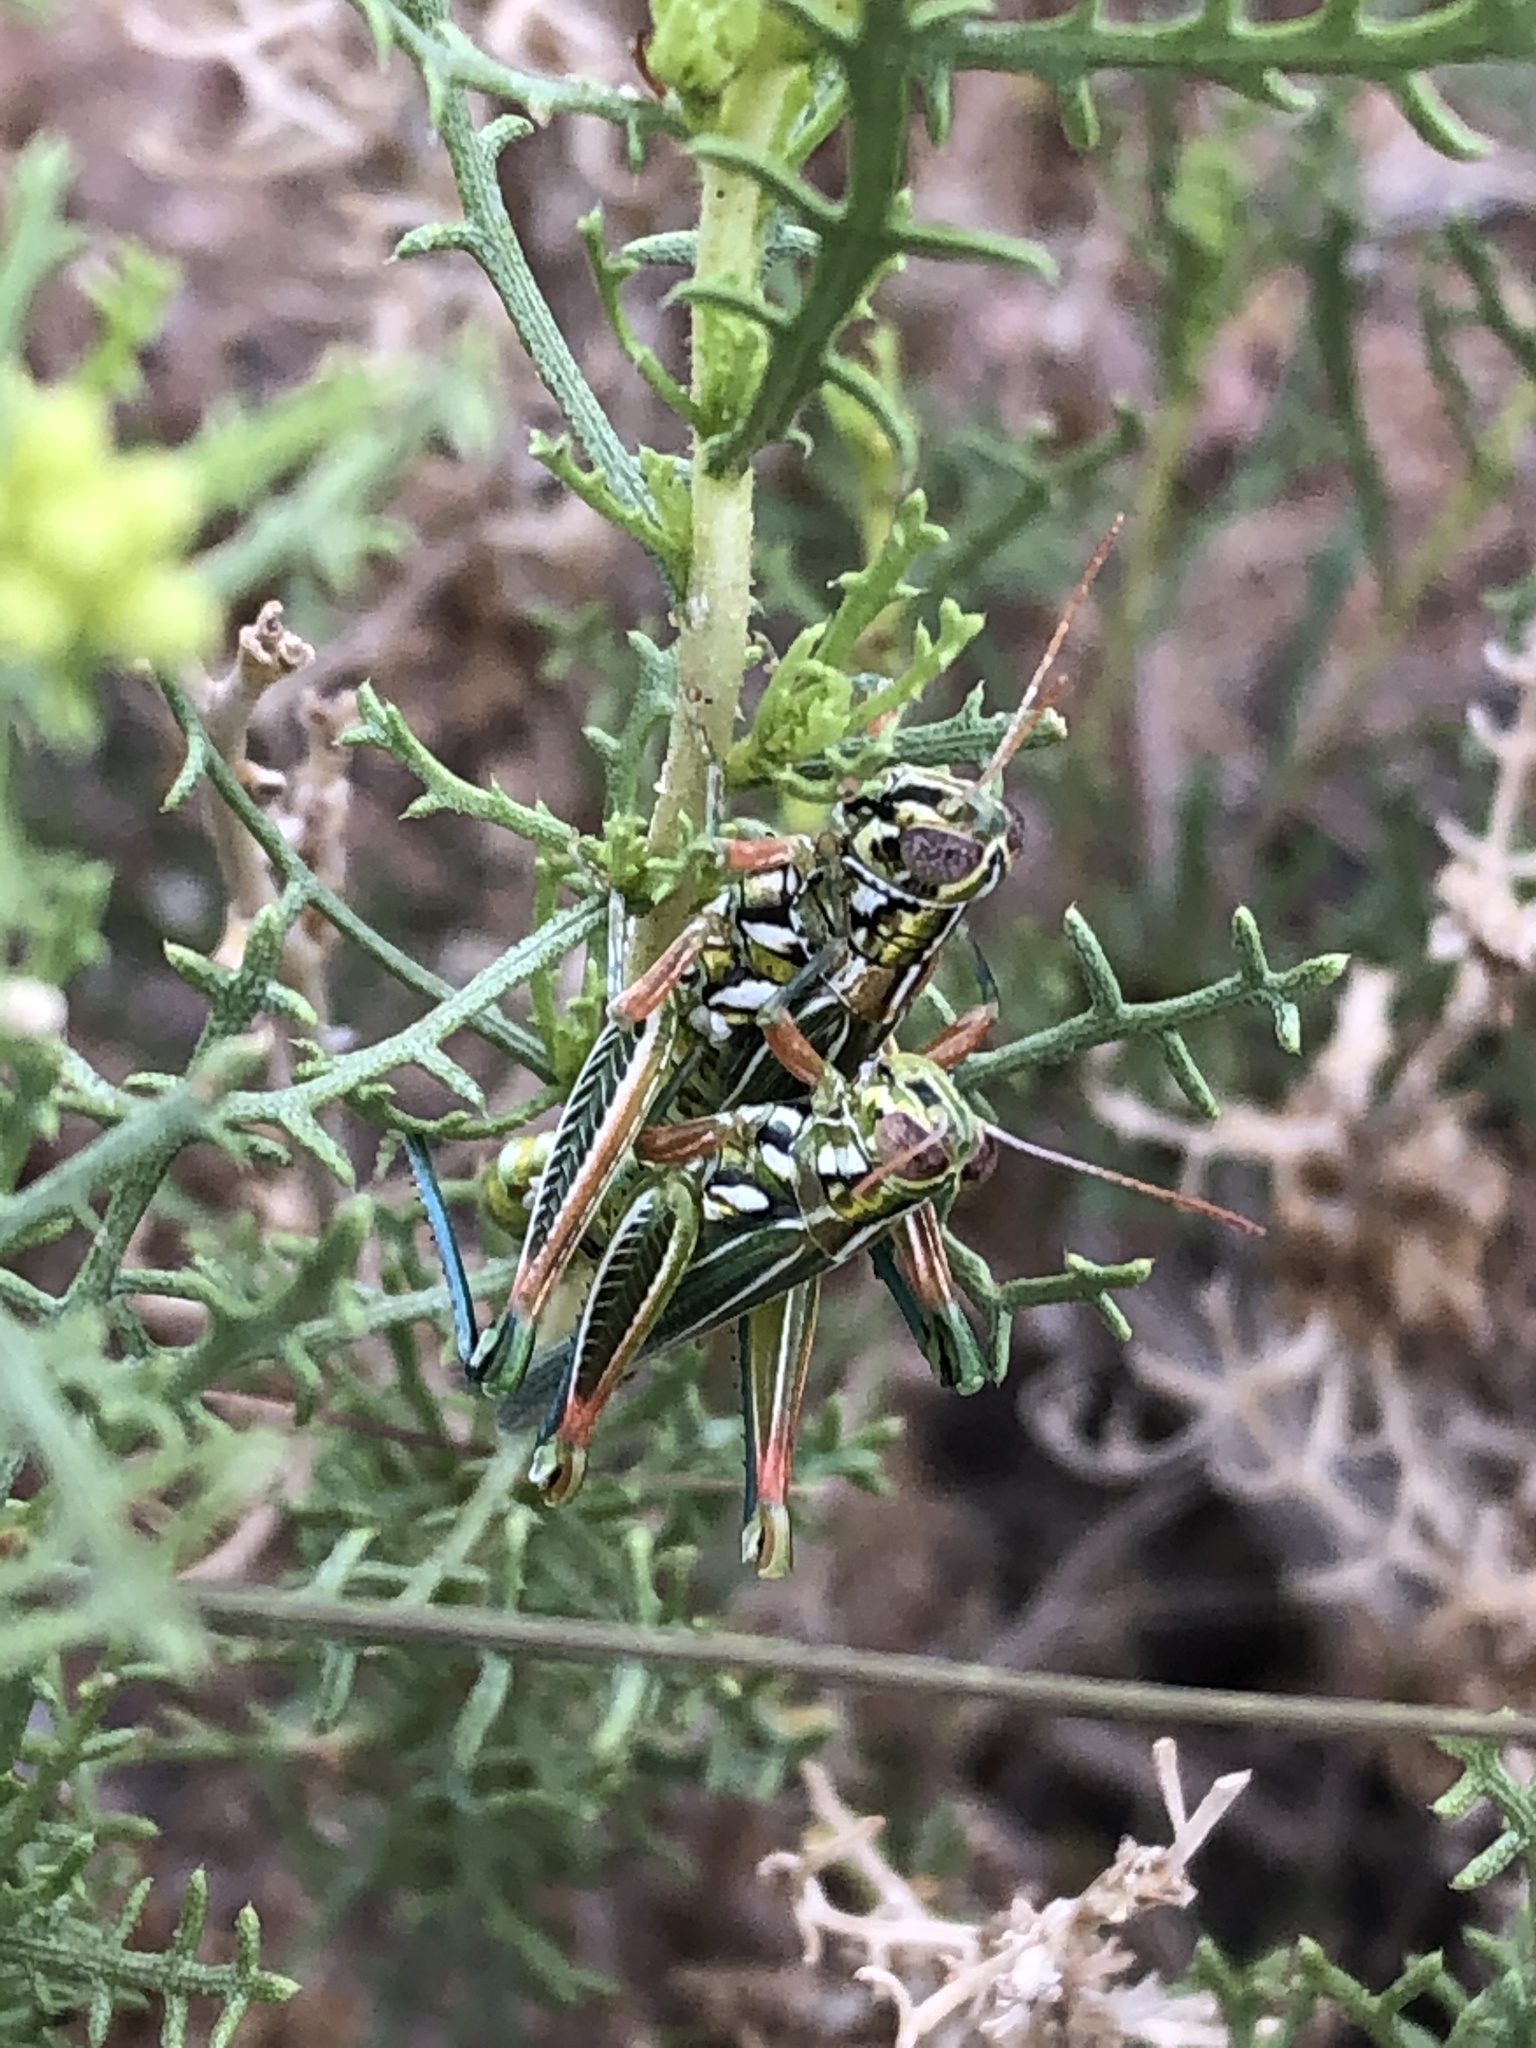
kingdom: Animalia
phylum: Arthropoda
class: Insecta
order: Orthoptera
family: Acrididae
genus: Hesperotettix
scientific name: Hesperotettix viridis
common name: Meadow purple-striped grasshopper
